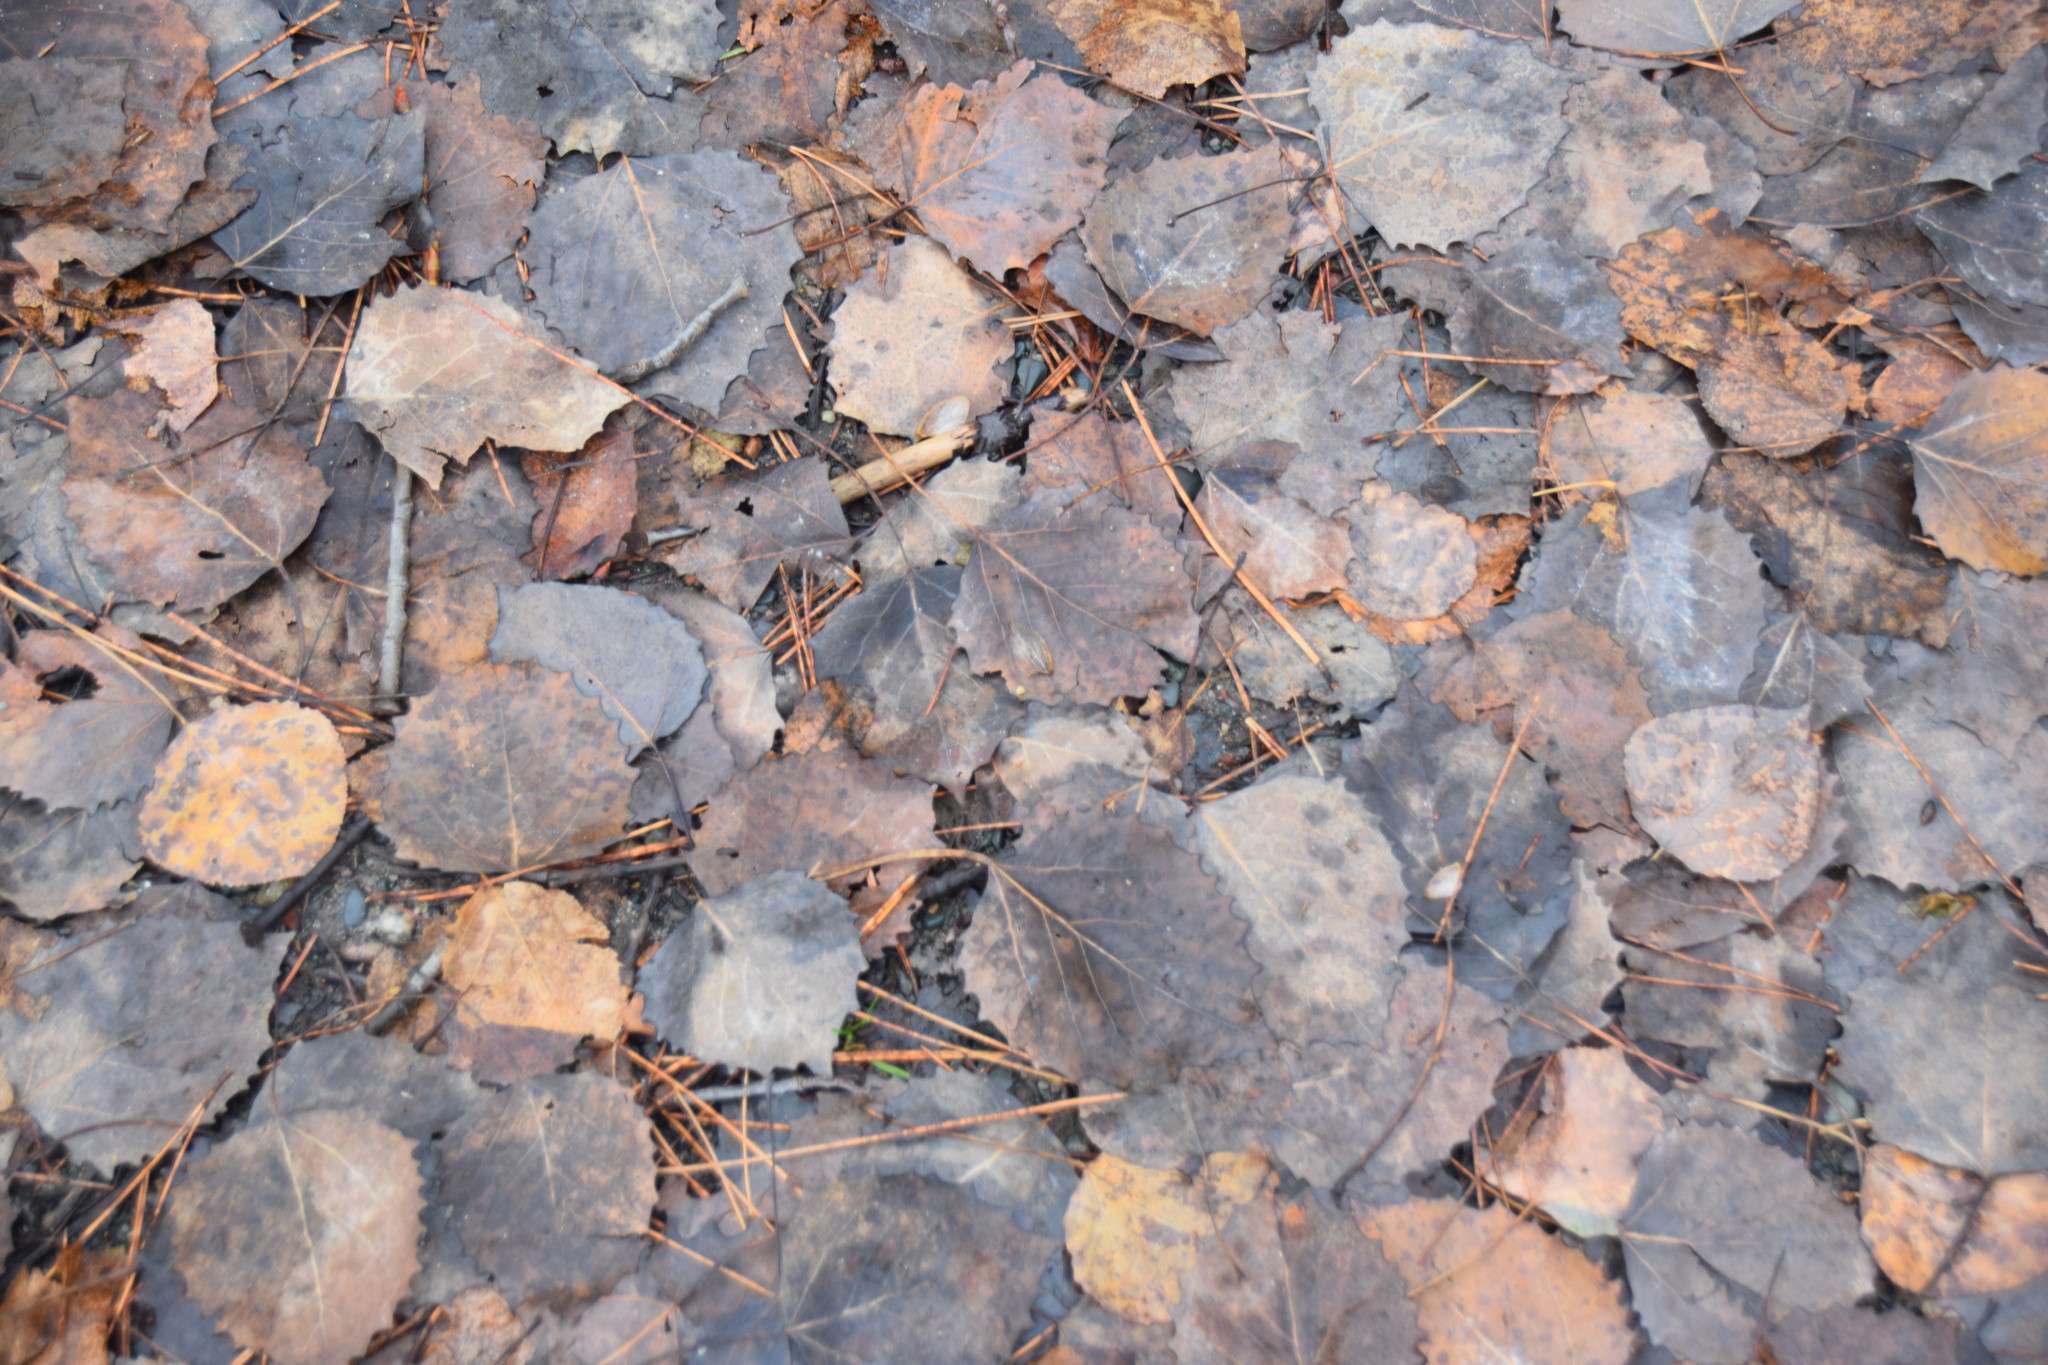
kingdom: Plantae
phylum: Tracheophyta
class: Magnoliopsida
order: Malpighiales
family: Salicaceae
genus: Populus
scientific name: Populus grandidentata
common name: Bigtooth aspen
